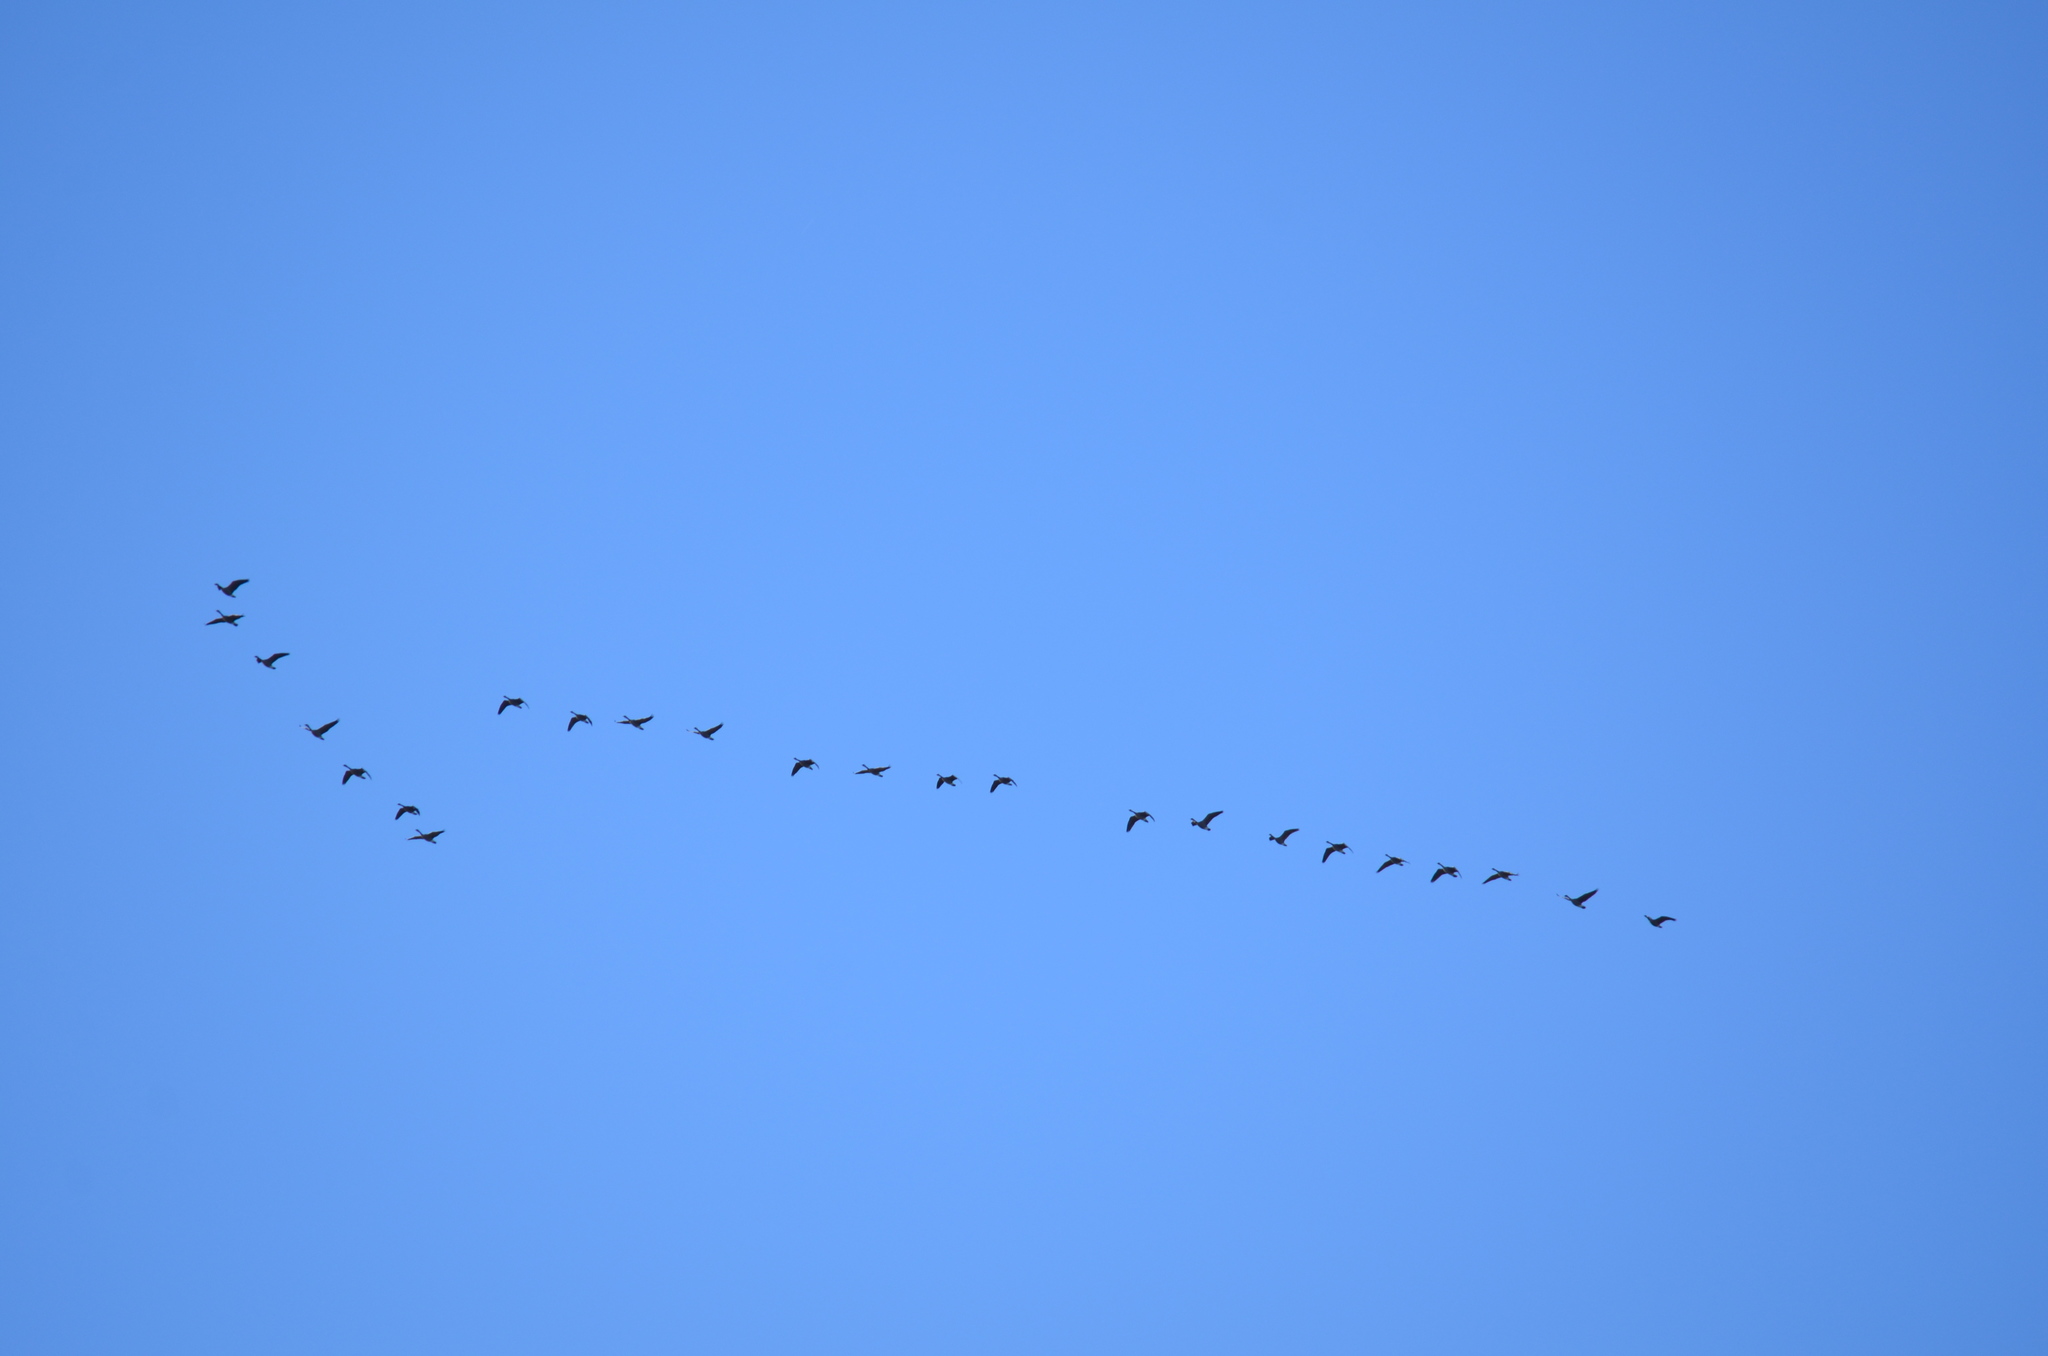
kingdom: Animalia
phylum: Chordata
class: Aves
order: Anseriformes
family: Anatidae
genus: Branta
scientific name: Branta canadensis
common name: Canada goose
